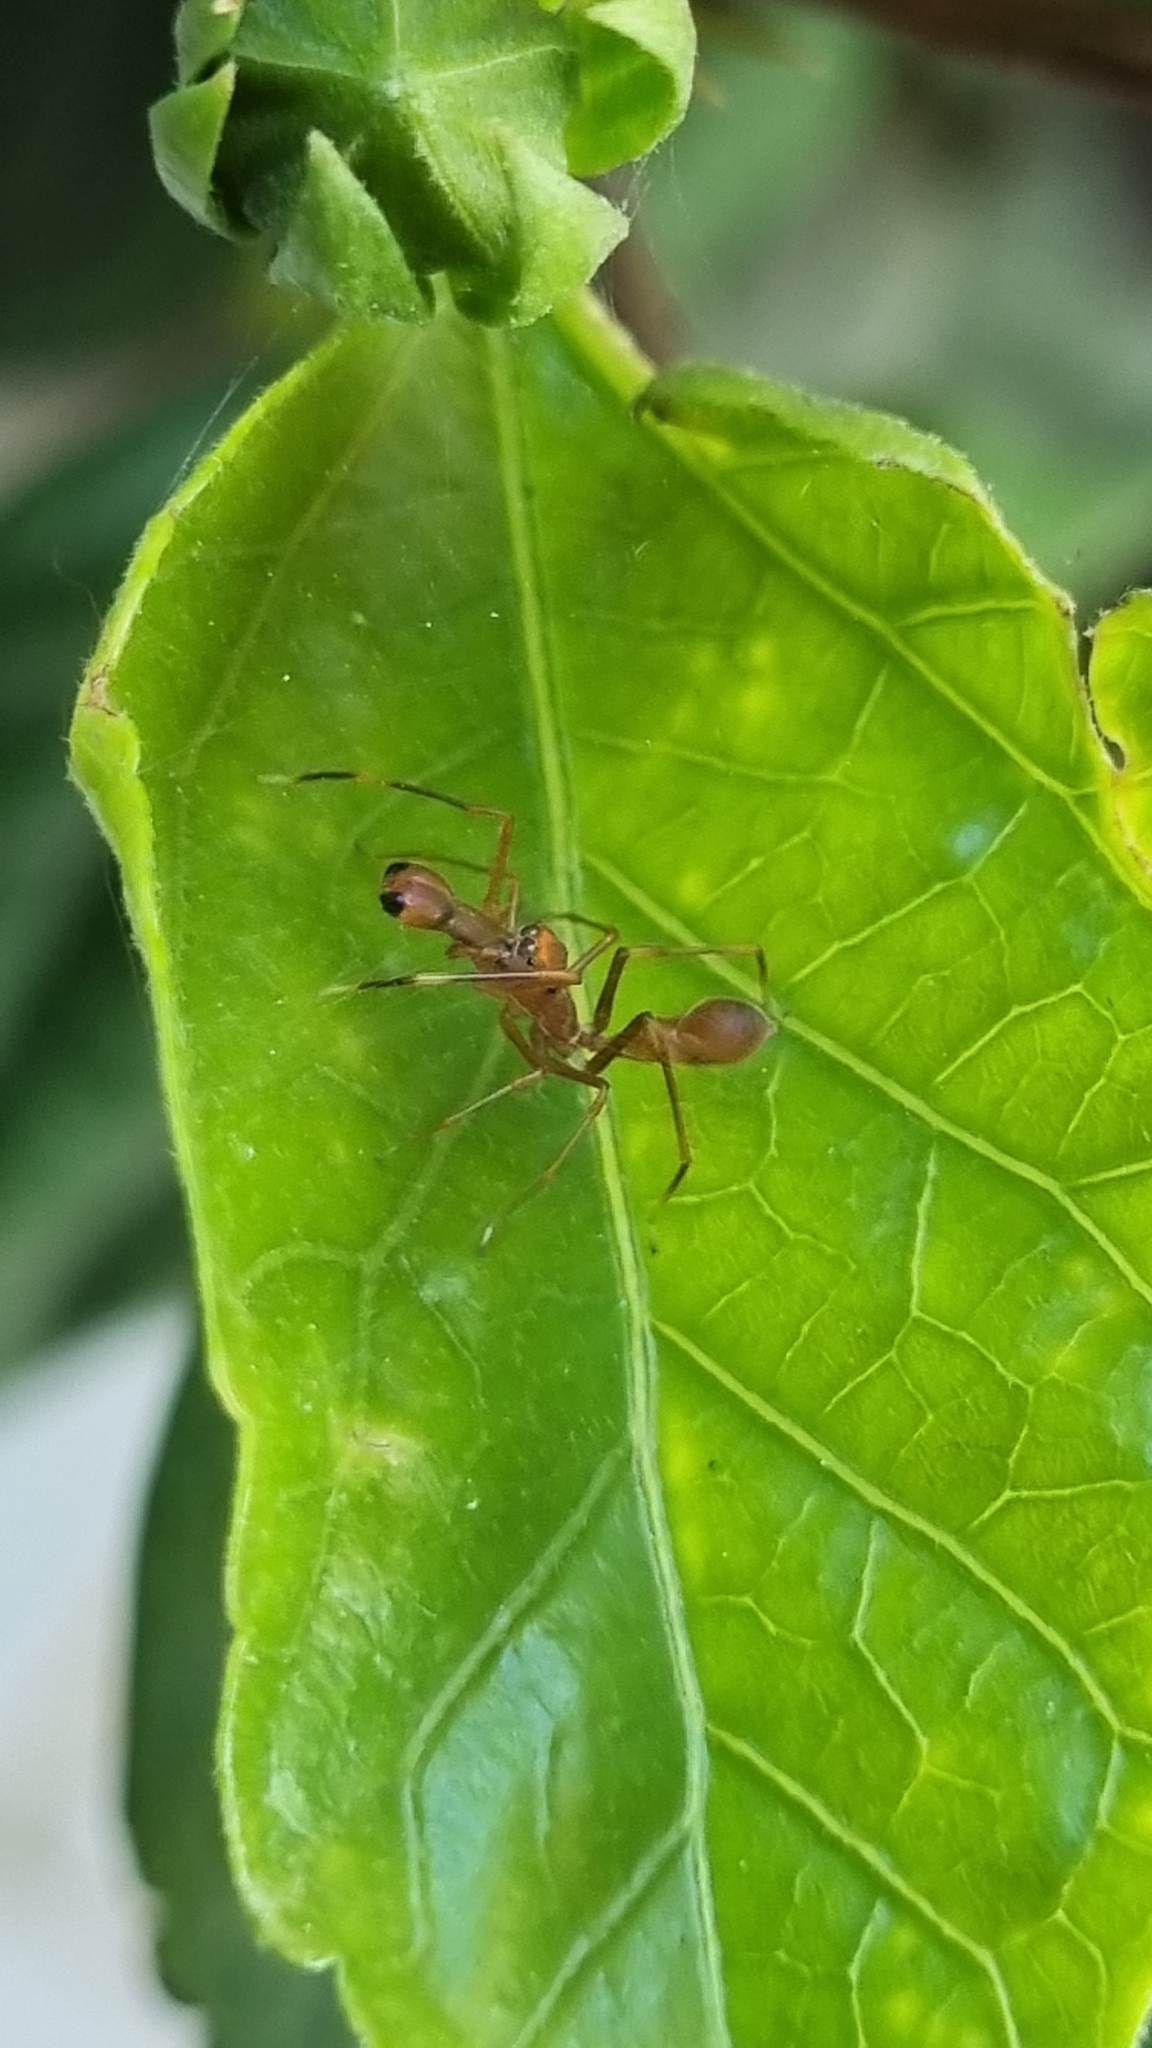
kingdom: Animalia
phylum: Arthropoda
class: Arachnida
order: Araneae
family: Salticidae
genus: Myrmaplata
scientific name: Myrmaplata plataleoides
